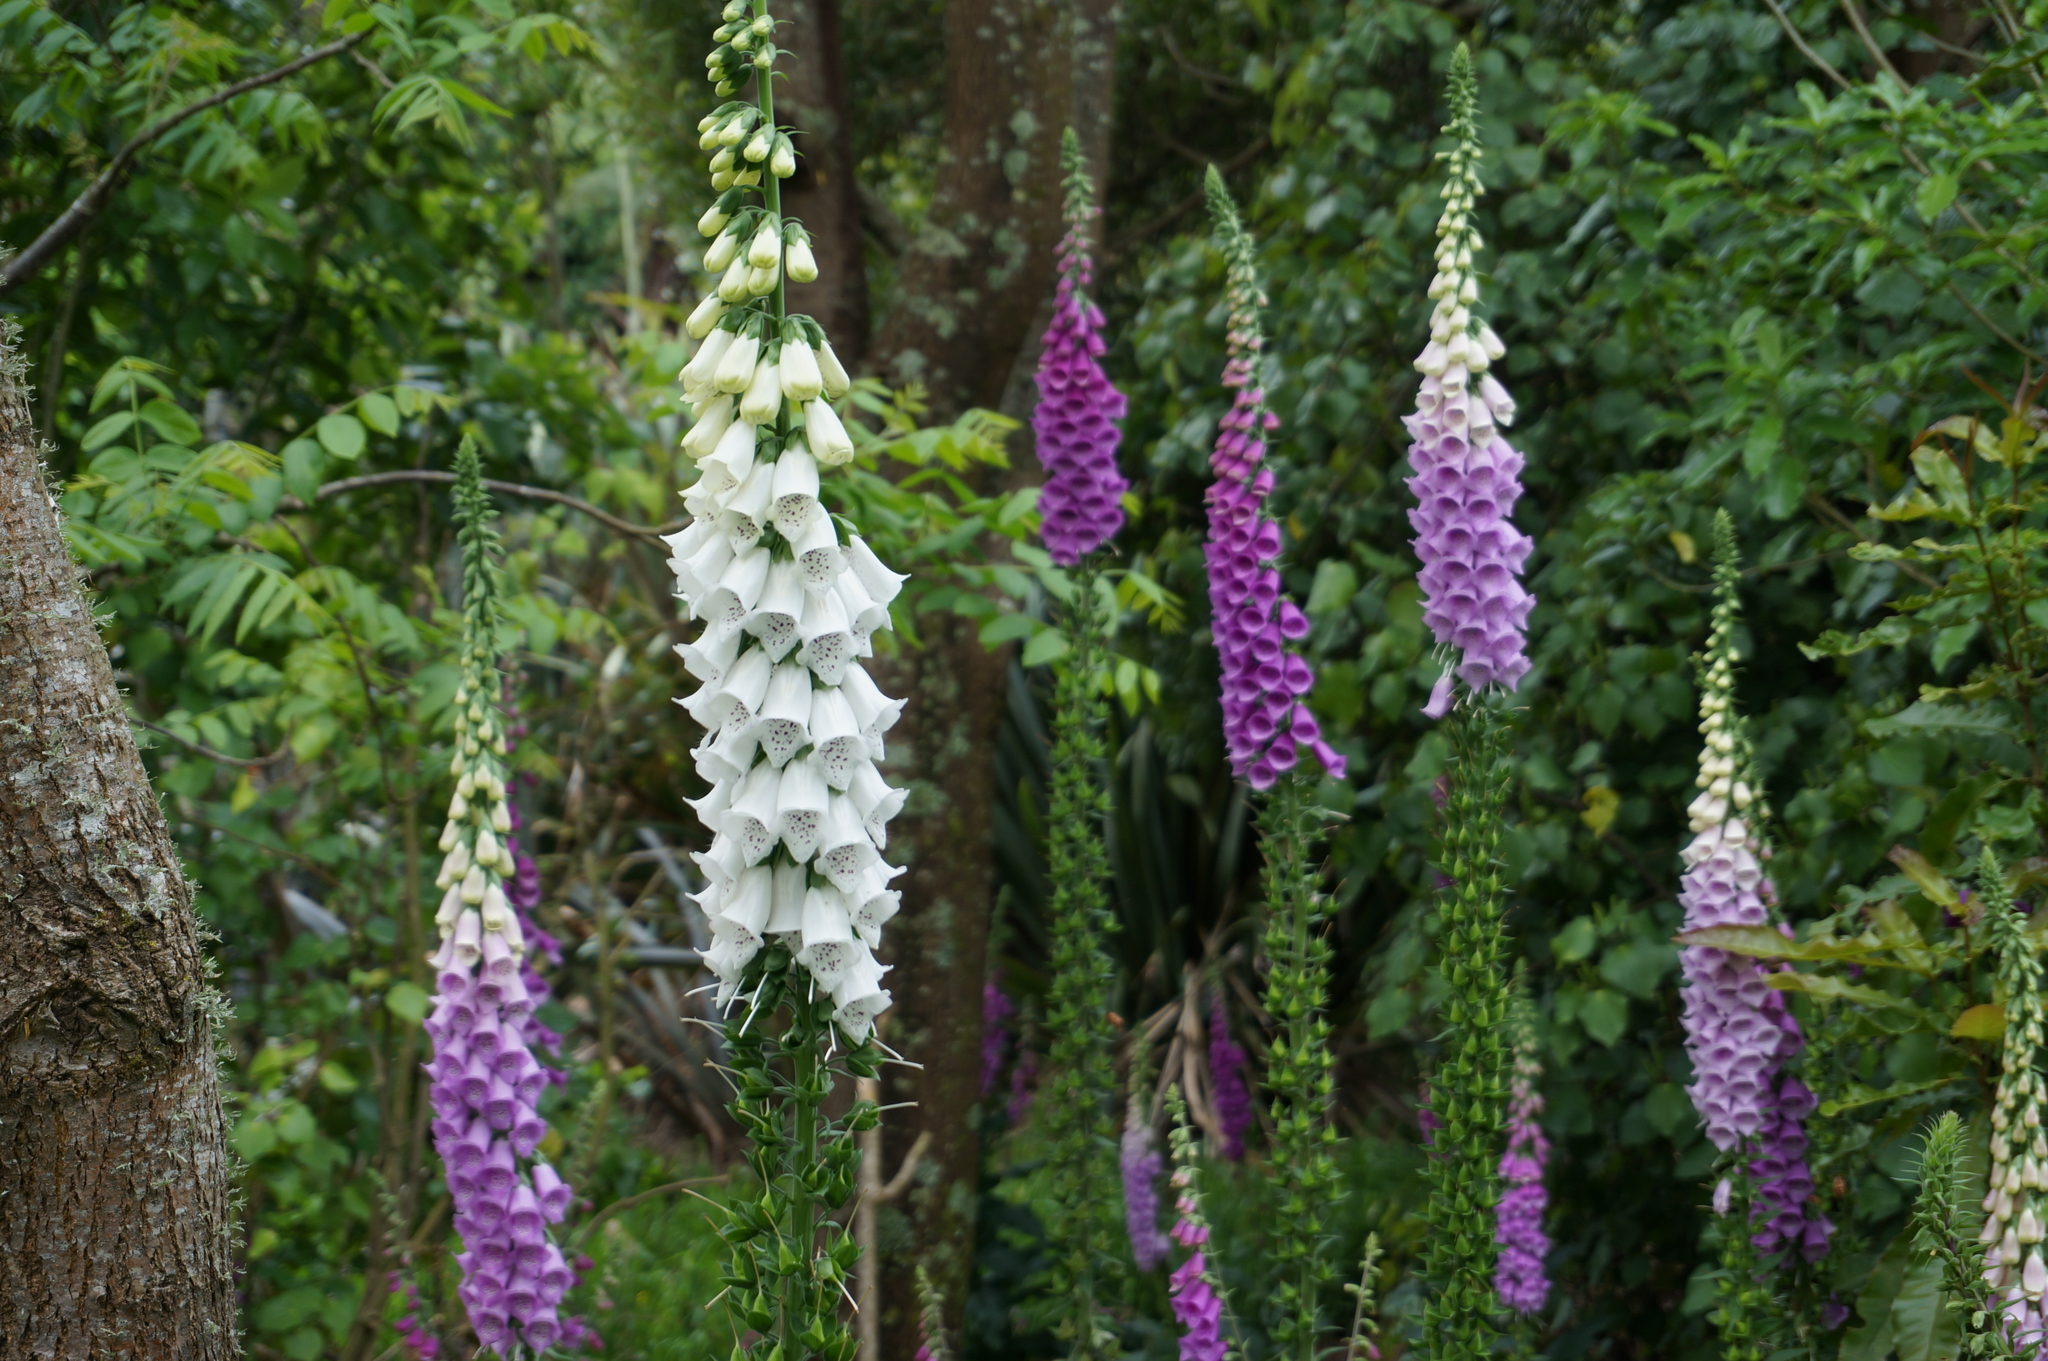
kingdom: Plantae
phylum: Tracheophyta
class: Magnoliopsida
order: Lamiales
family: Plantaginaceae
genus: Digitalis
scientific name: Digitalis purpurea
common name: Foxglove
